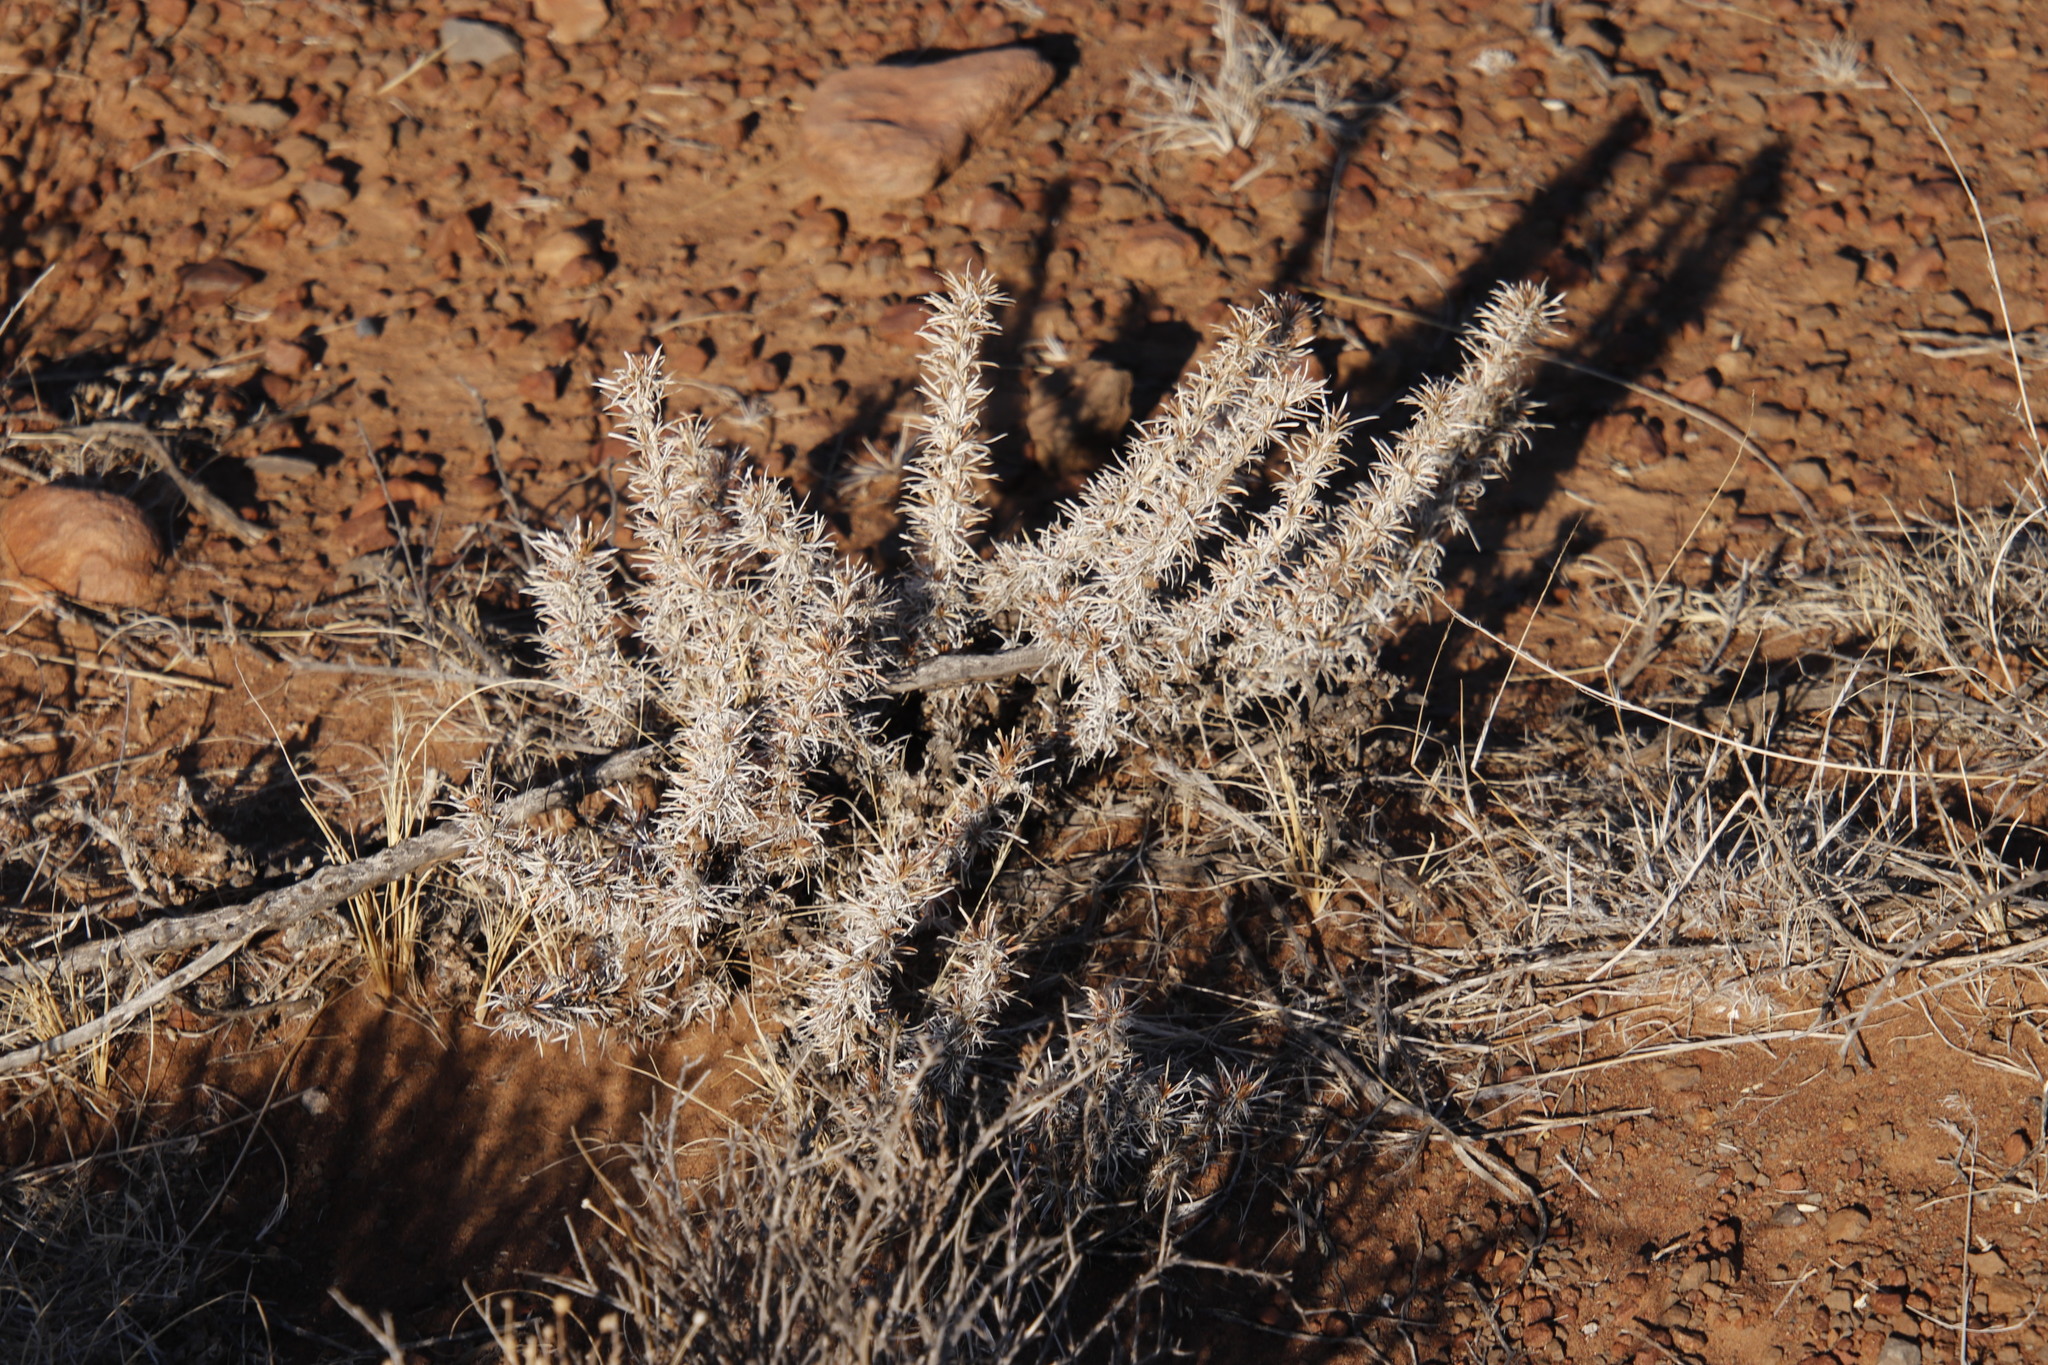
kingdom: Plantae
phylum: Tracheophyta
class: Magnoliopsida
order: Lamiales
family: Scrophulariaceae
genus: Aptosimum
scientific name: Aptosimum spinescens
